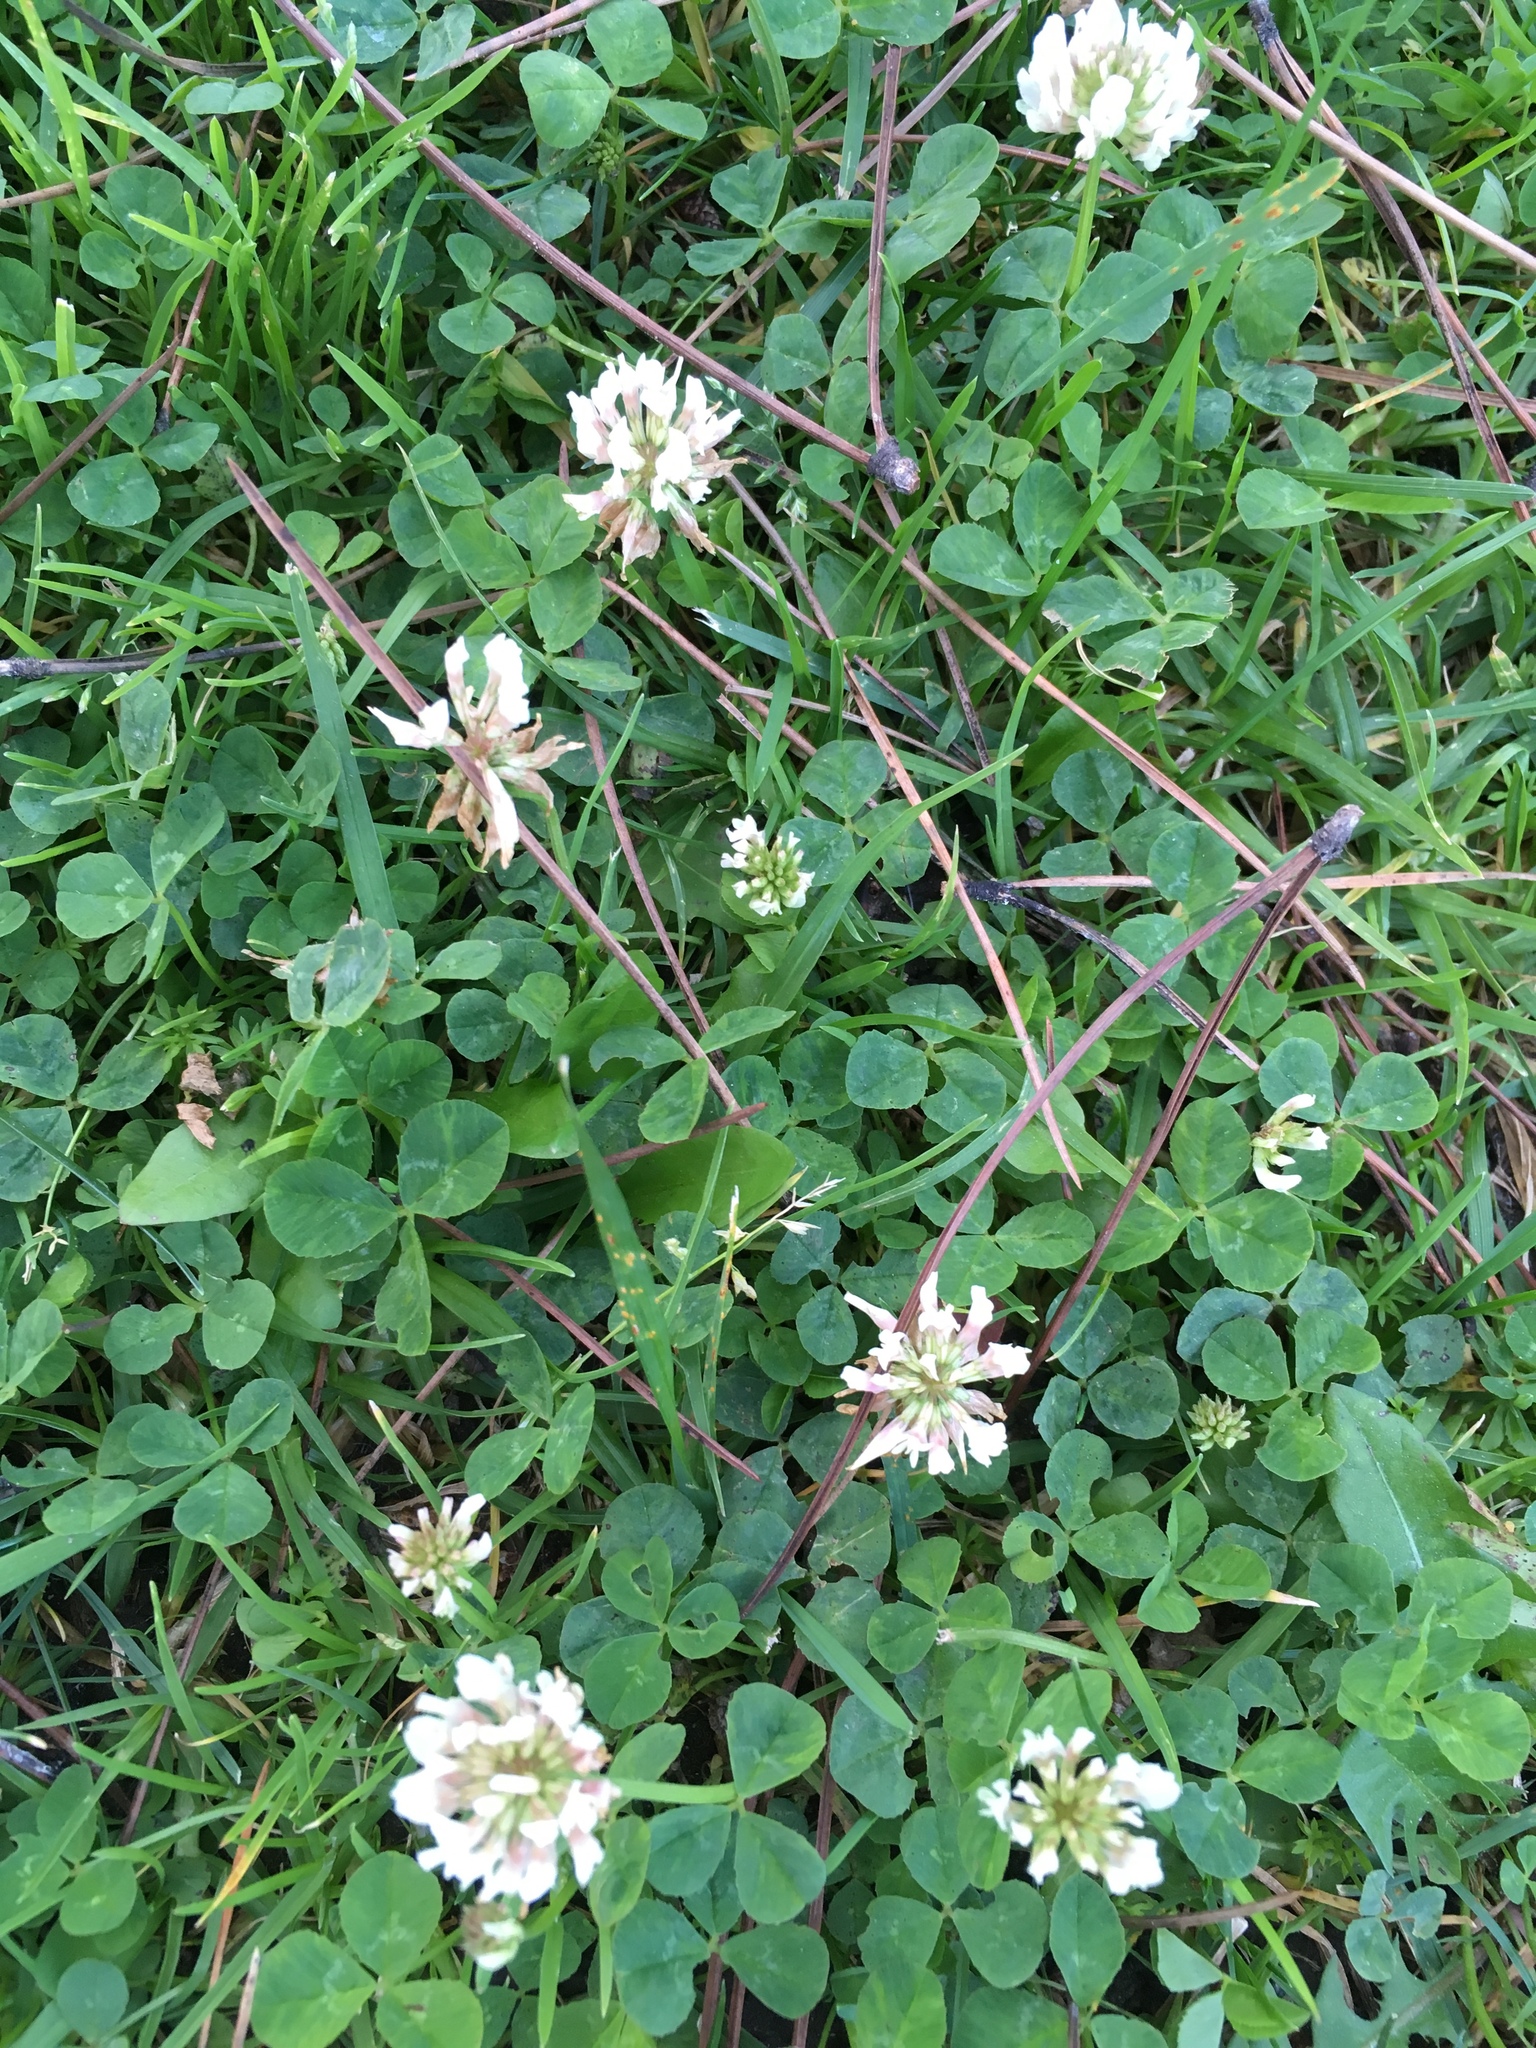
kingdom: Plantae
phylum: Tracheophyta
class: Magnoliopsida
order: Fabales
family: Fabaceae
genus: Trifolium
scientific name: Trifolium repens
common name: White clover
